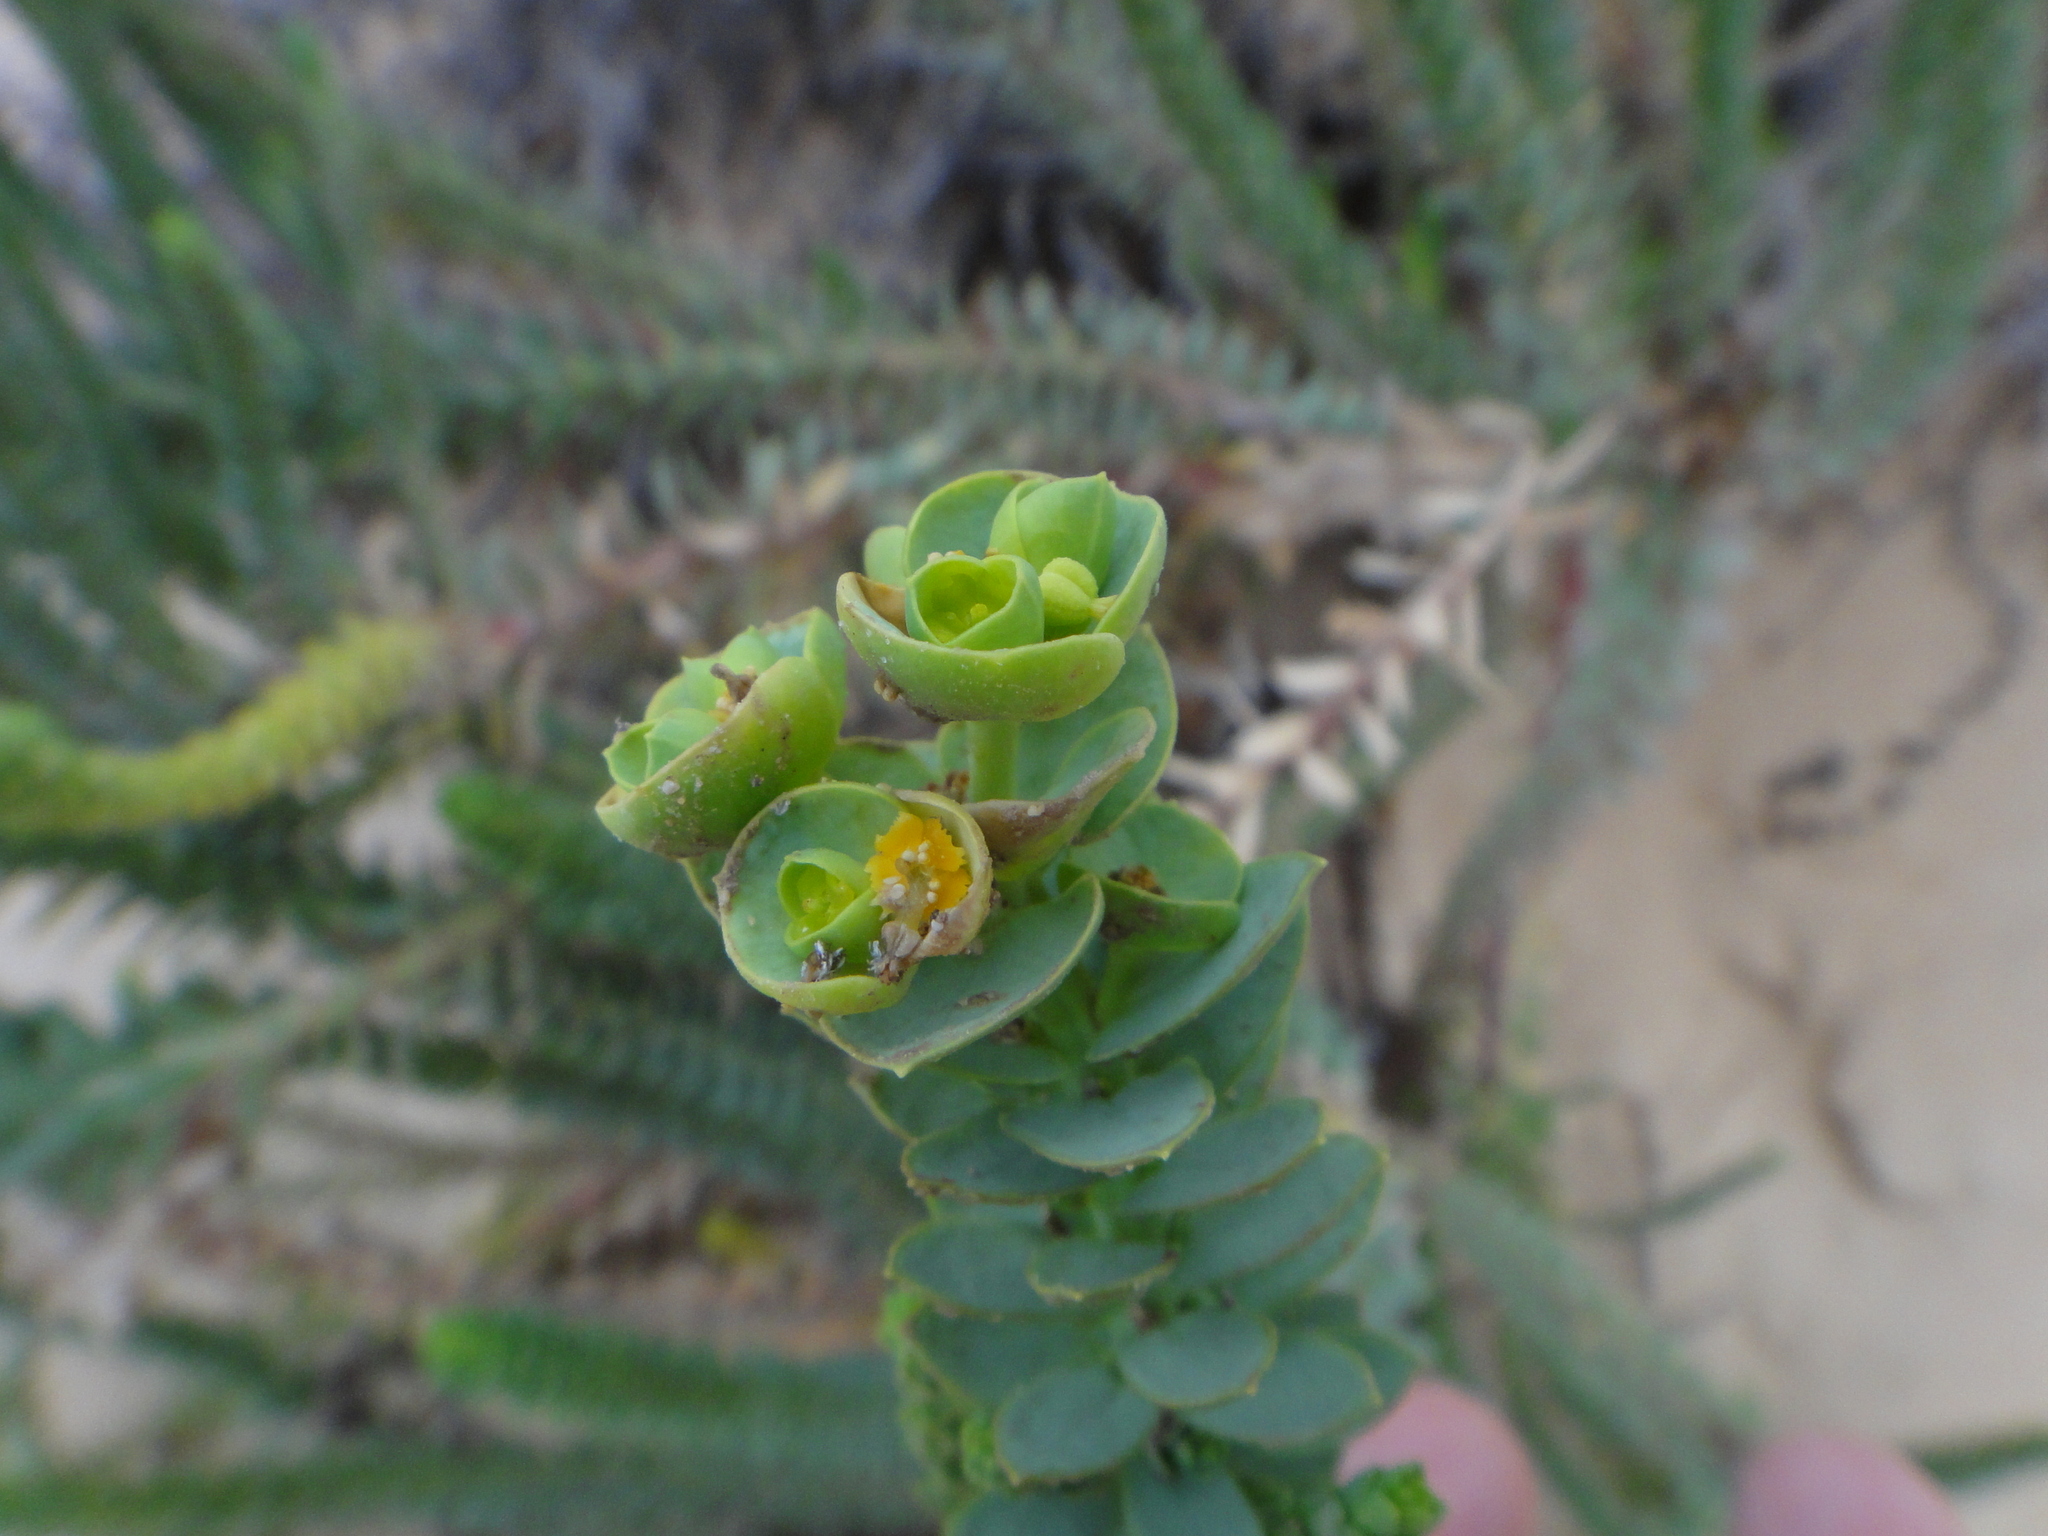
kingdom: Plantae
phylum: Tracheophyta
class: Magnoliopsida
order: Malpighiales
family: Euphorbiaceae
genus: Euphorbia
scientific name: Euphorbia paralias
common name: Sea spurge
